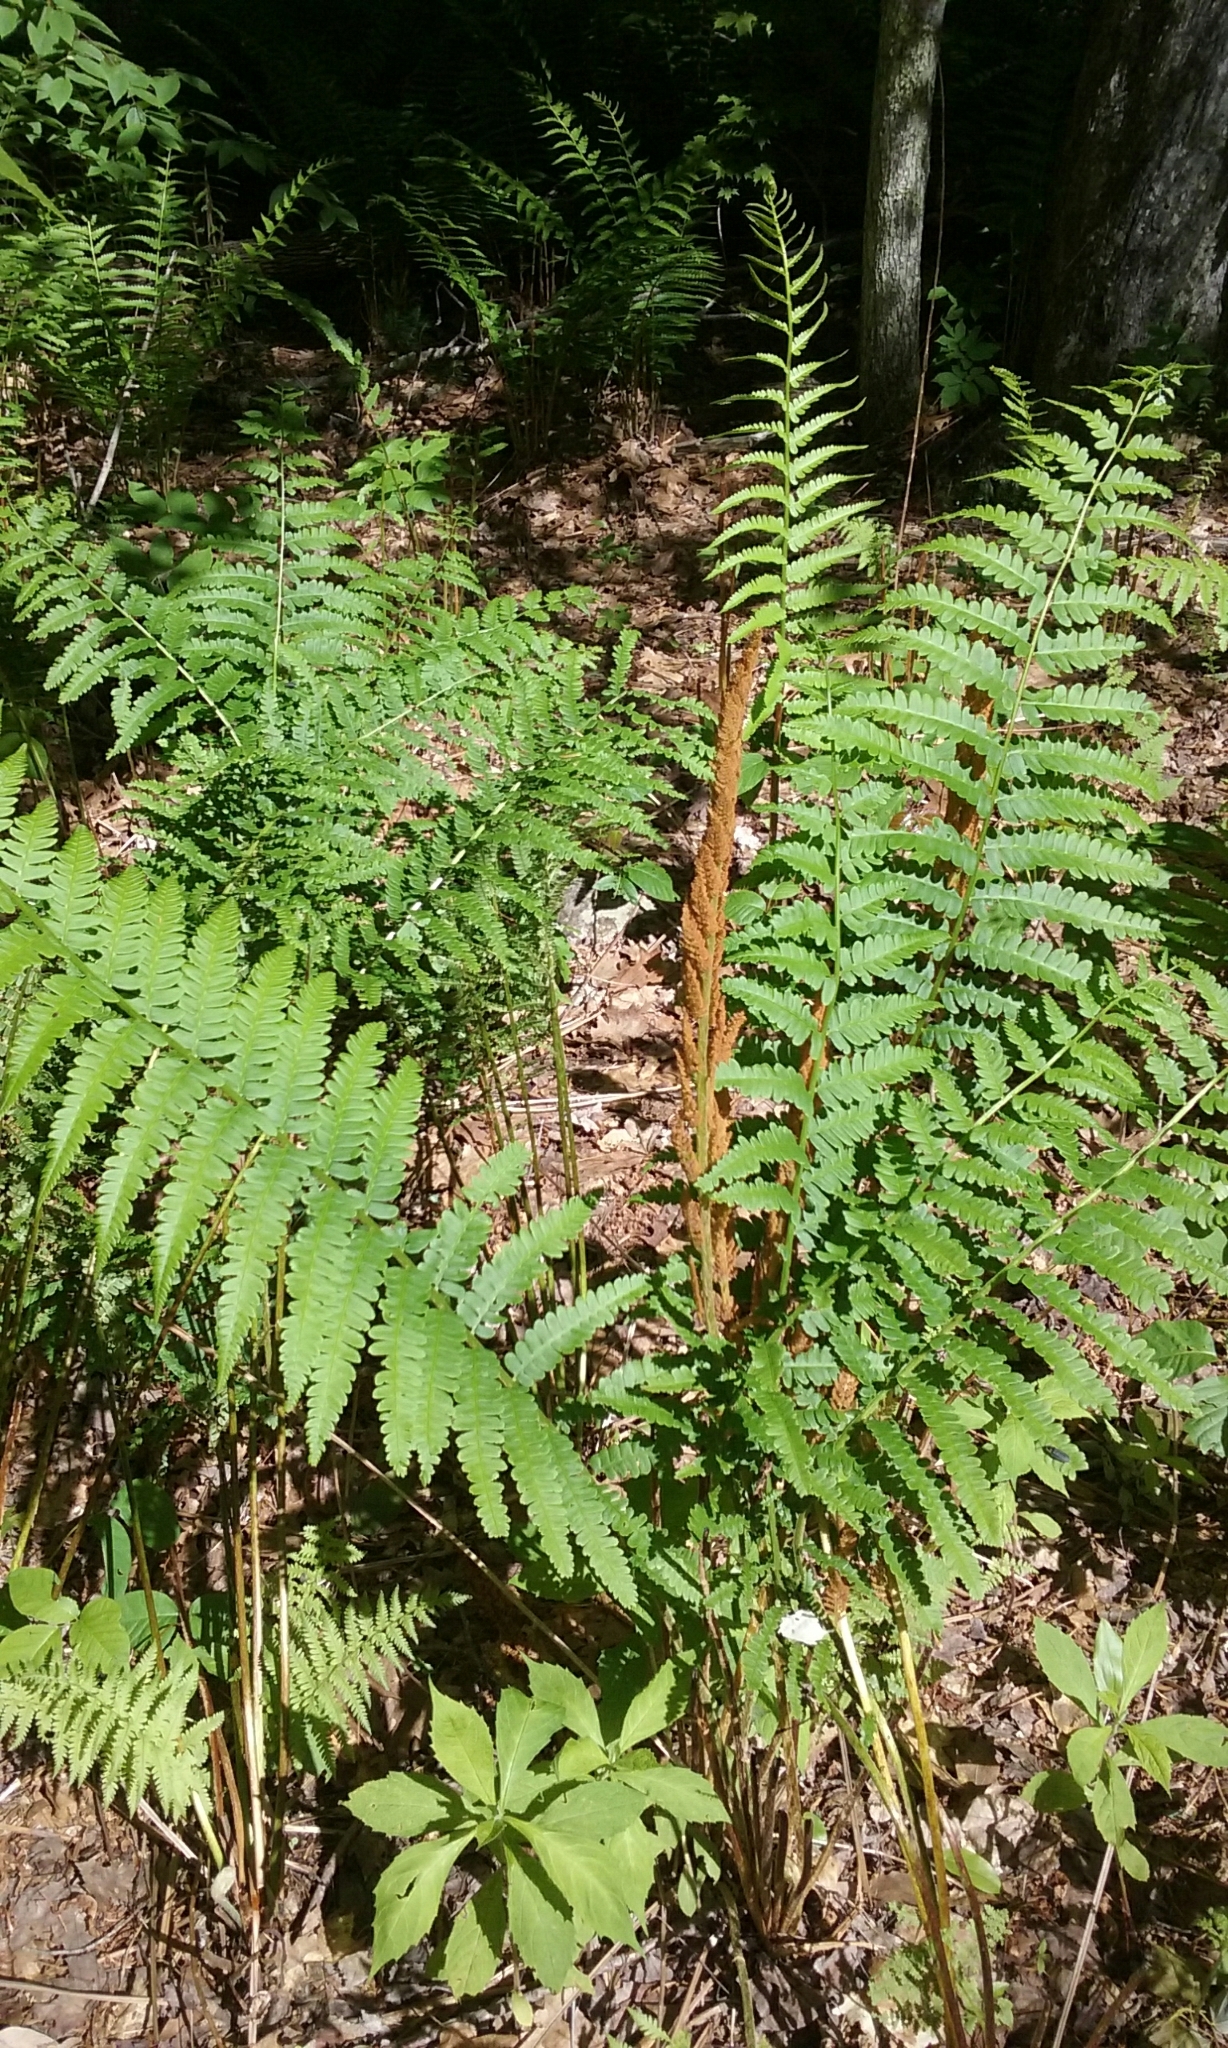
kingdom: Plantae
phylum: Tracheophyta
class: Polypodiopsida
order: Osmundales
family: Osmundaceae
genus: Osmundastrum
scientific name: Osmundastrum cinnamomeum
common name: Cinnamon fern
